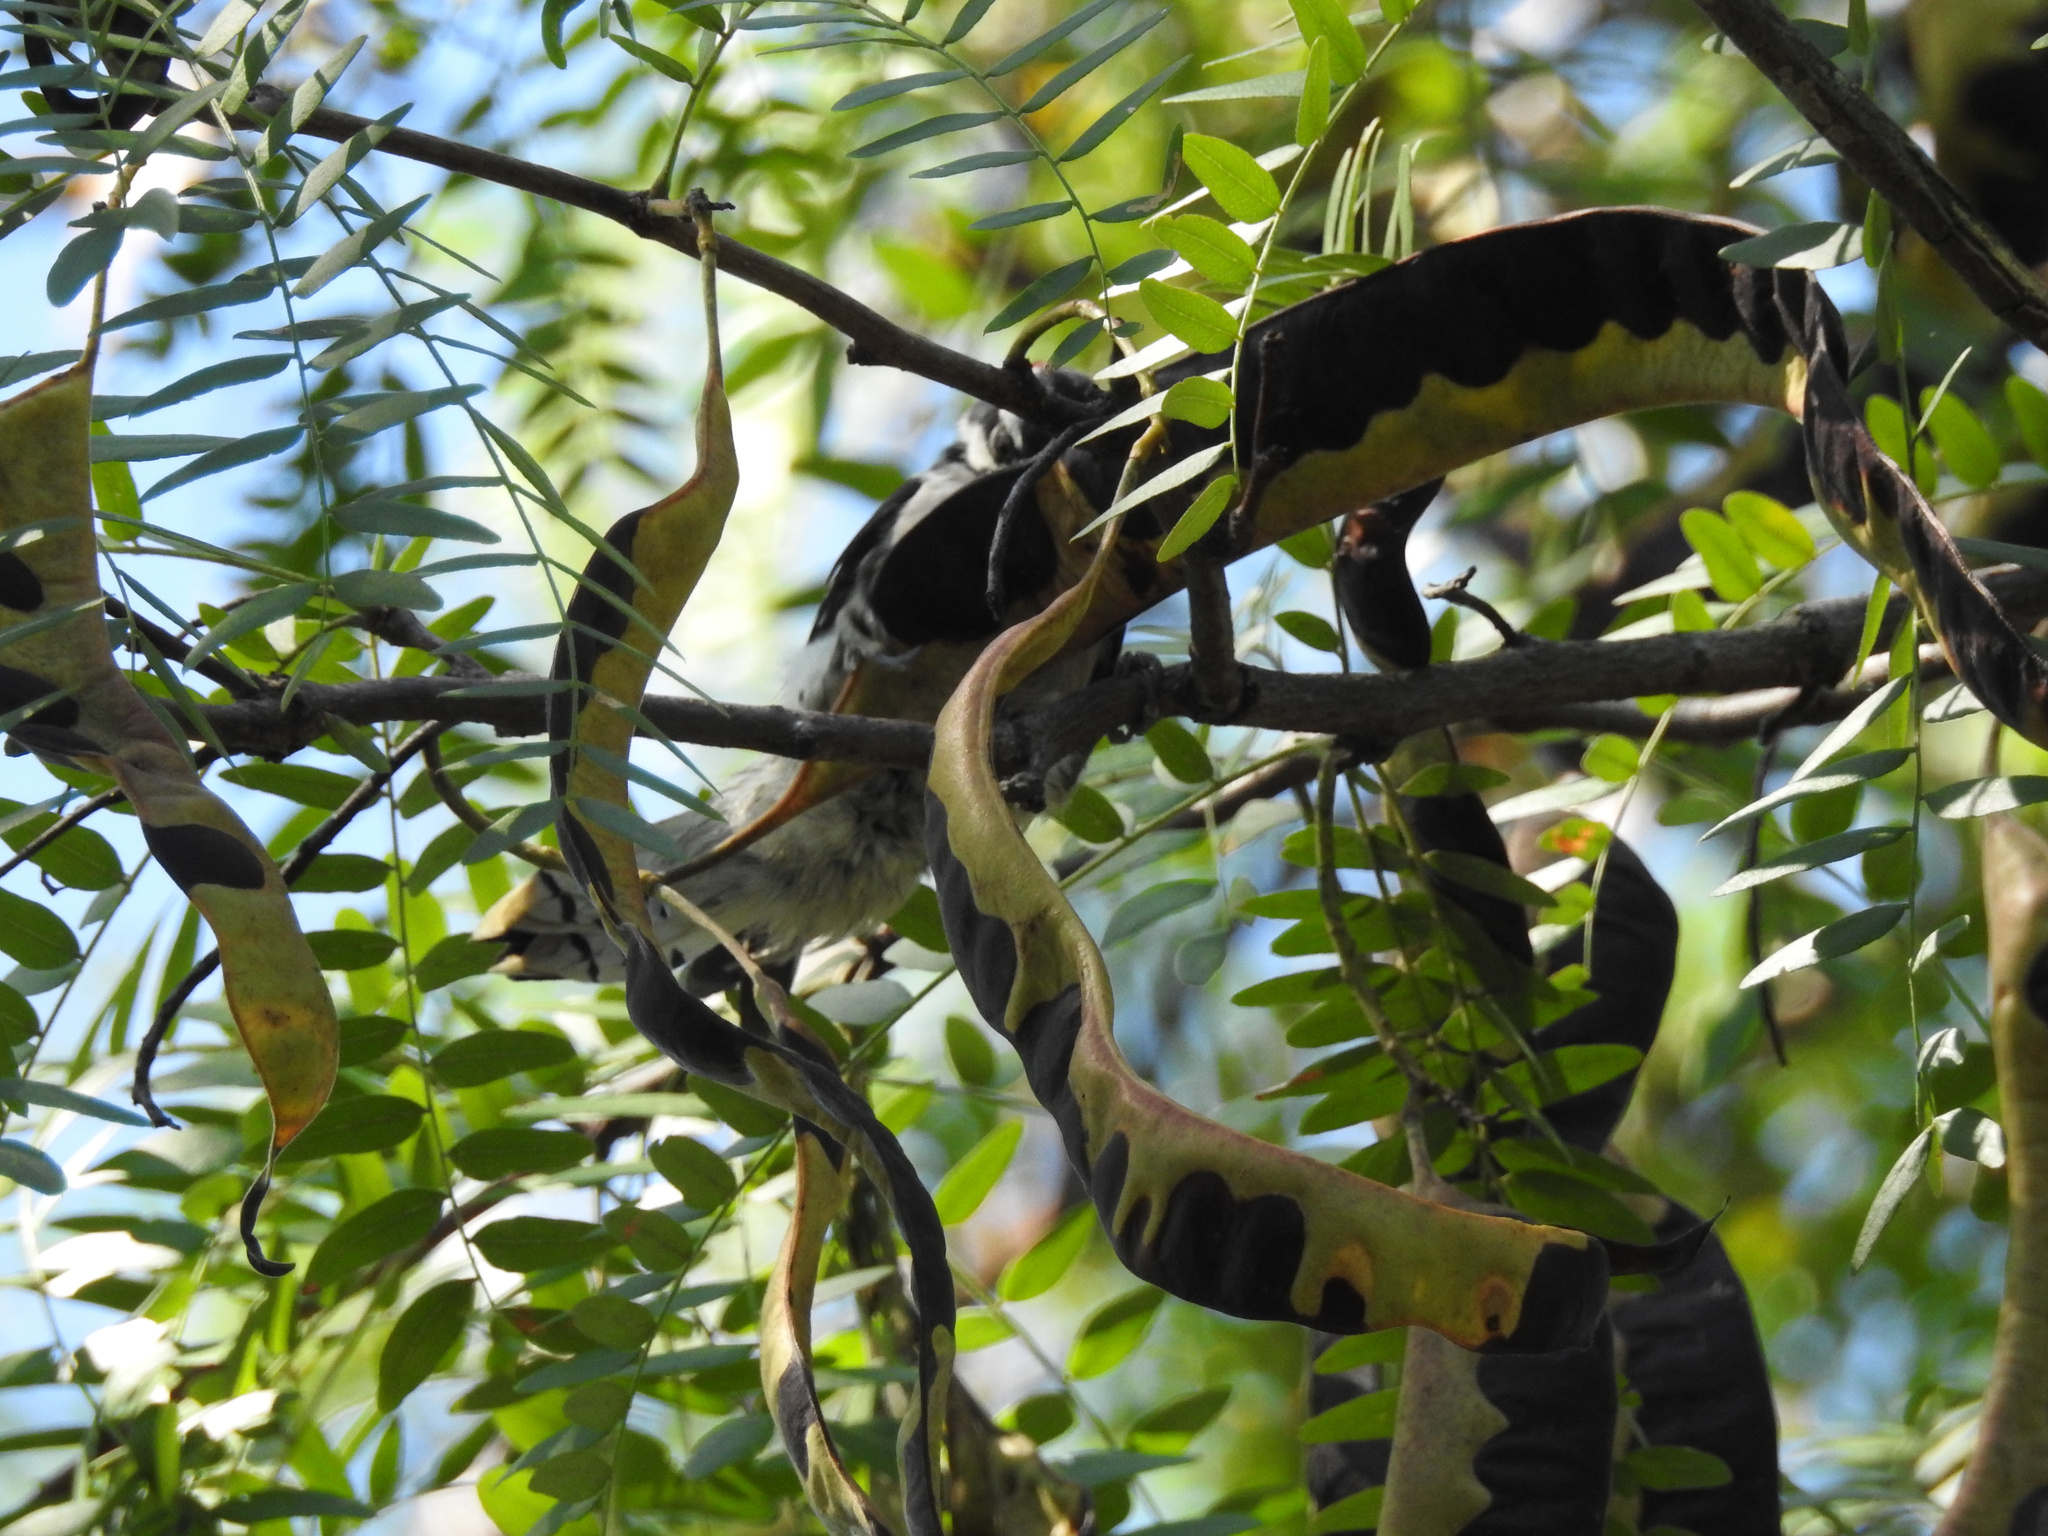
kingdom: Plantae
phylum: Tracheophyta
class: Magnoliopsida
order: Fabales
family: Fabaceae
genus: Gleditsia
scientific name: Gleditsia triacanthos
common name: Common honeylocust
